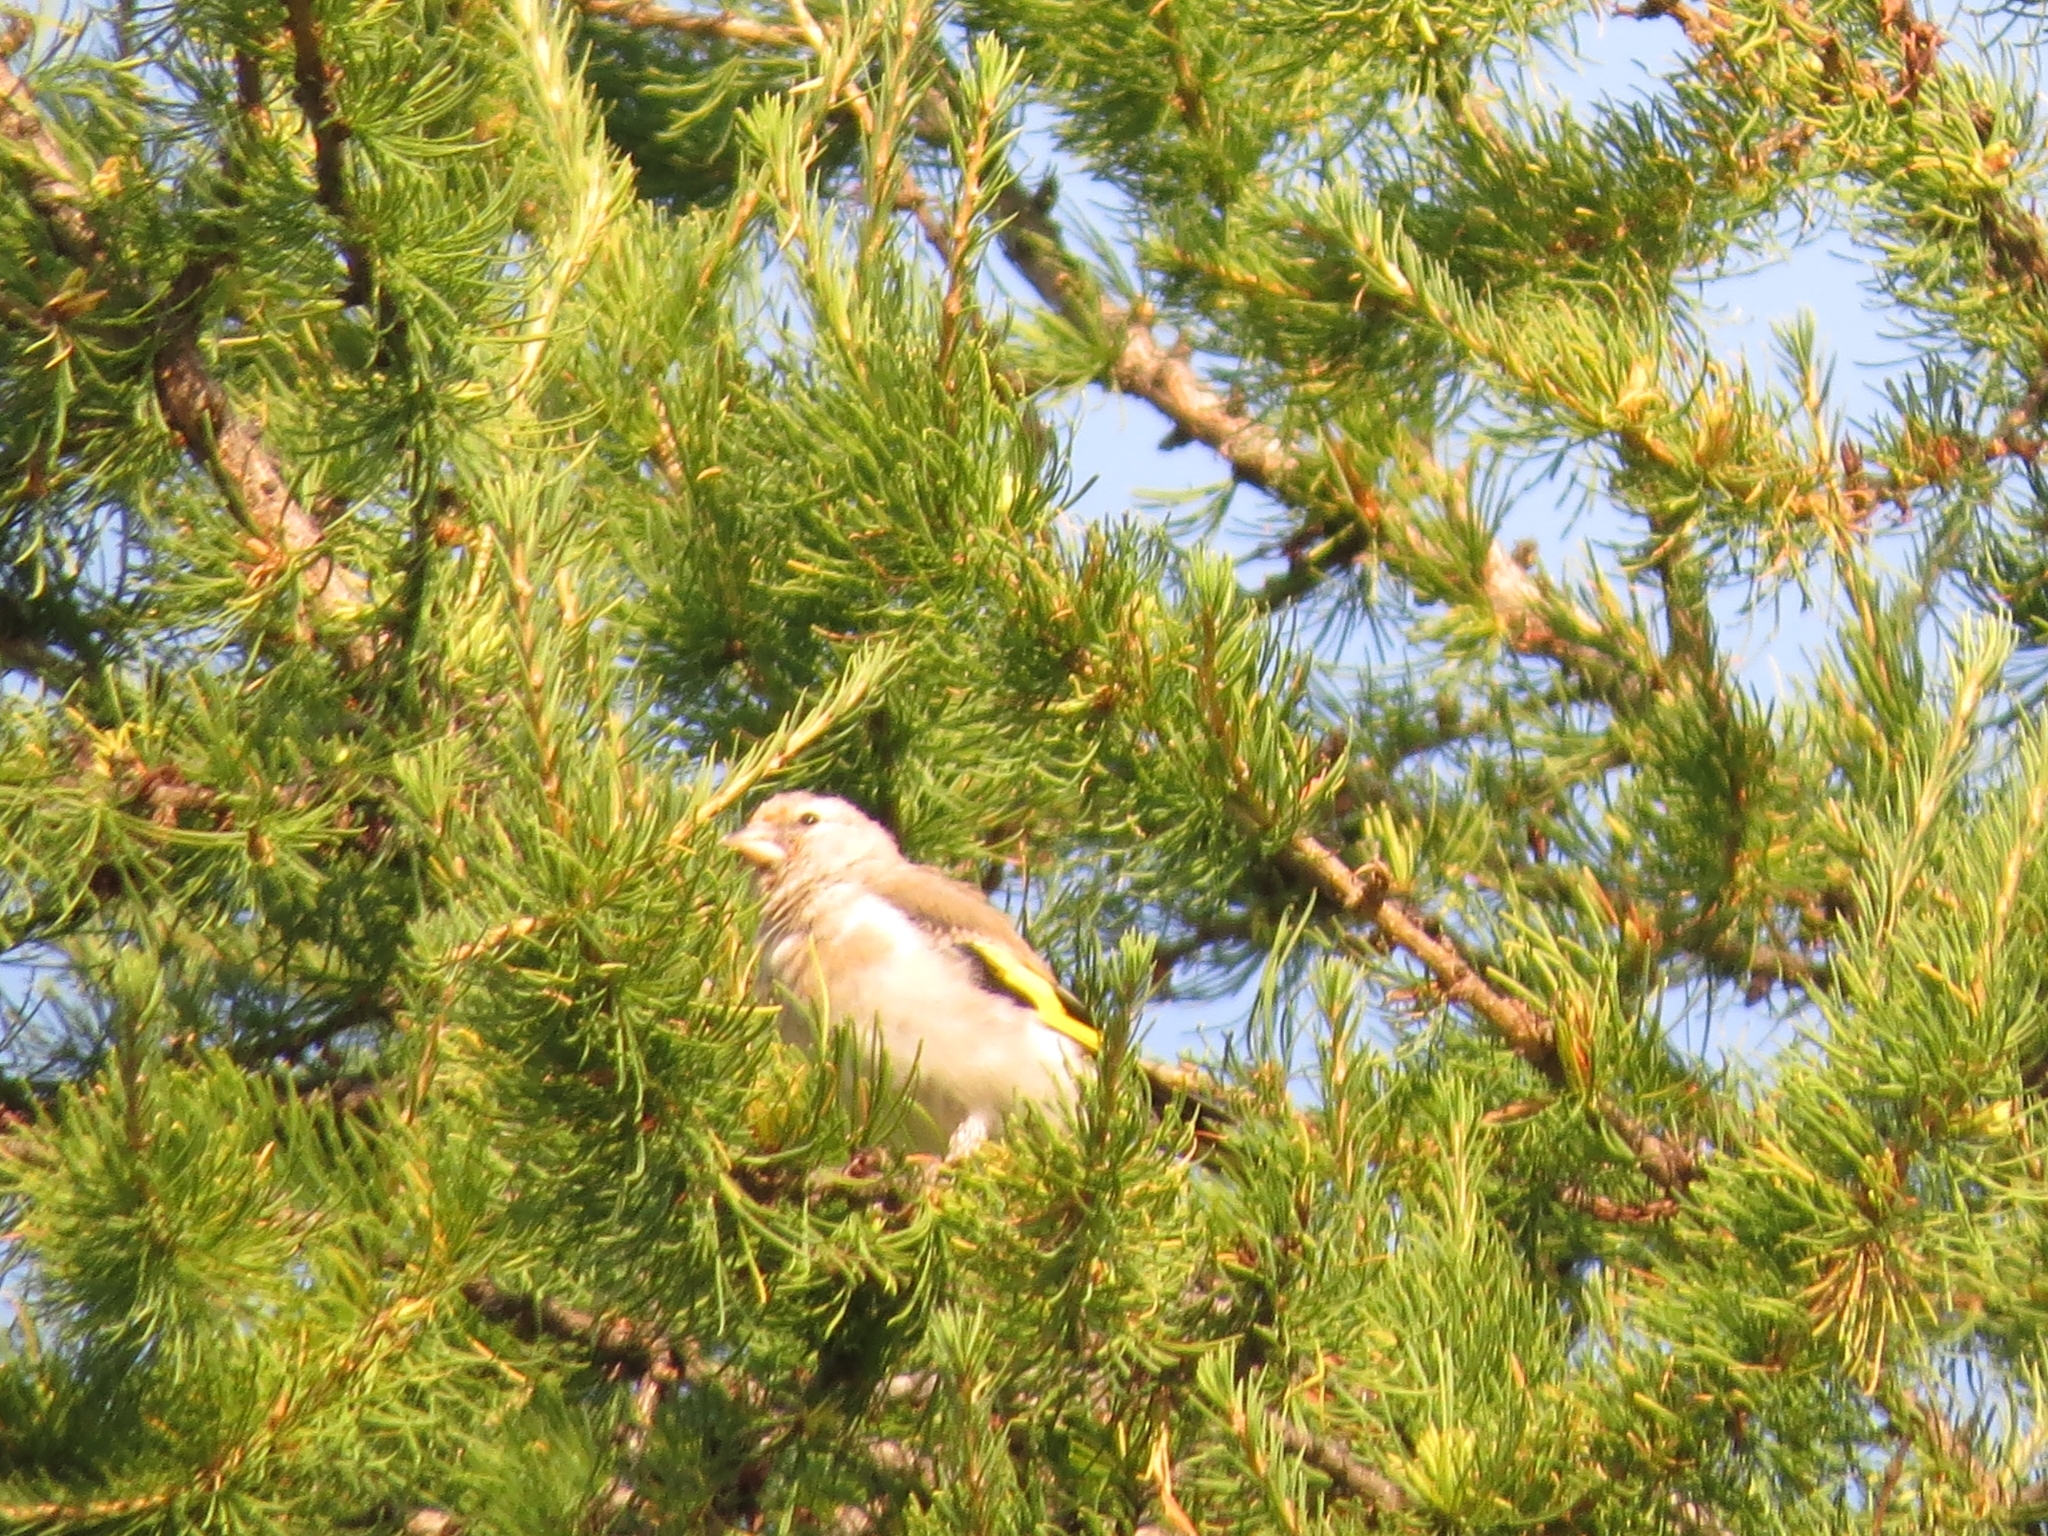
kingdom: Animalia
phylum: Chordata
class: Aves
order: Passeriformes
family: Fringillidae
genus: Carduelis
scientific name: Carduelis carduelis
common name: European goldfinch
